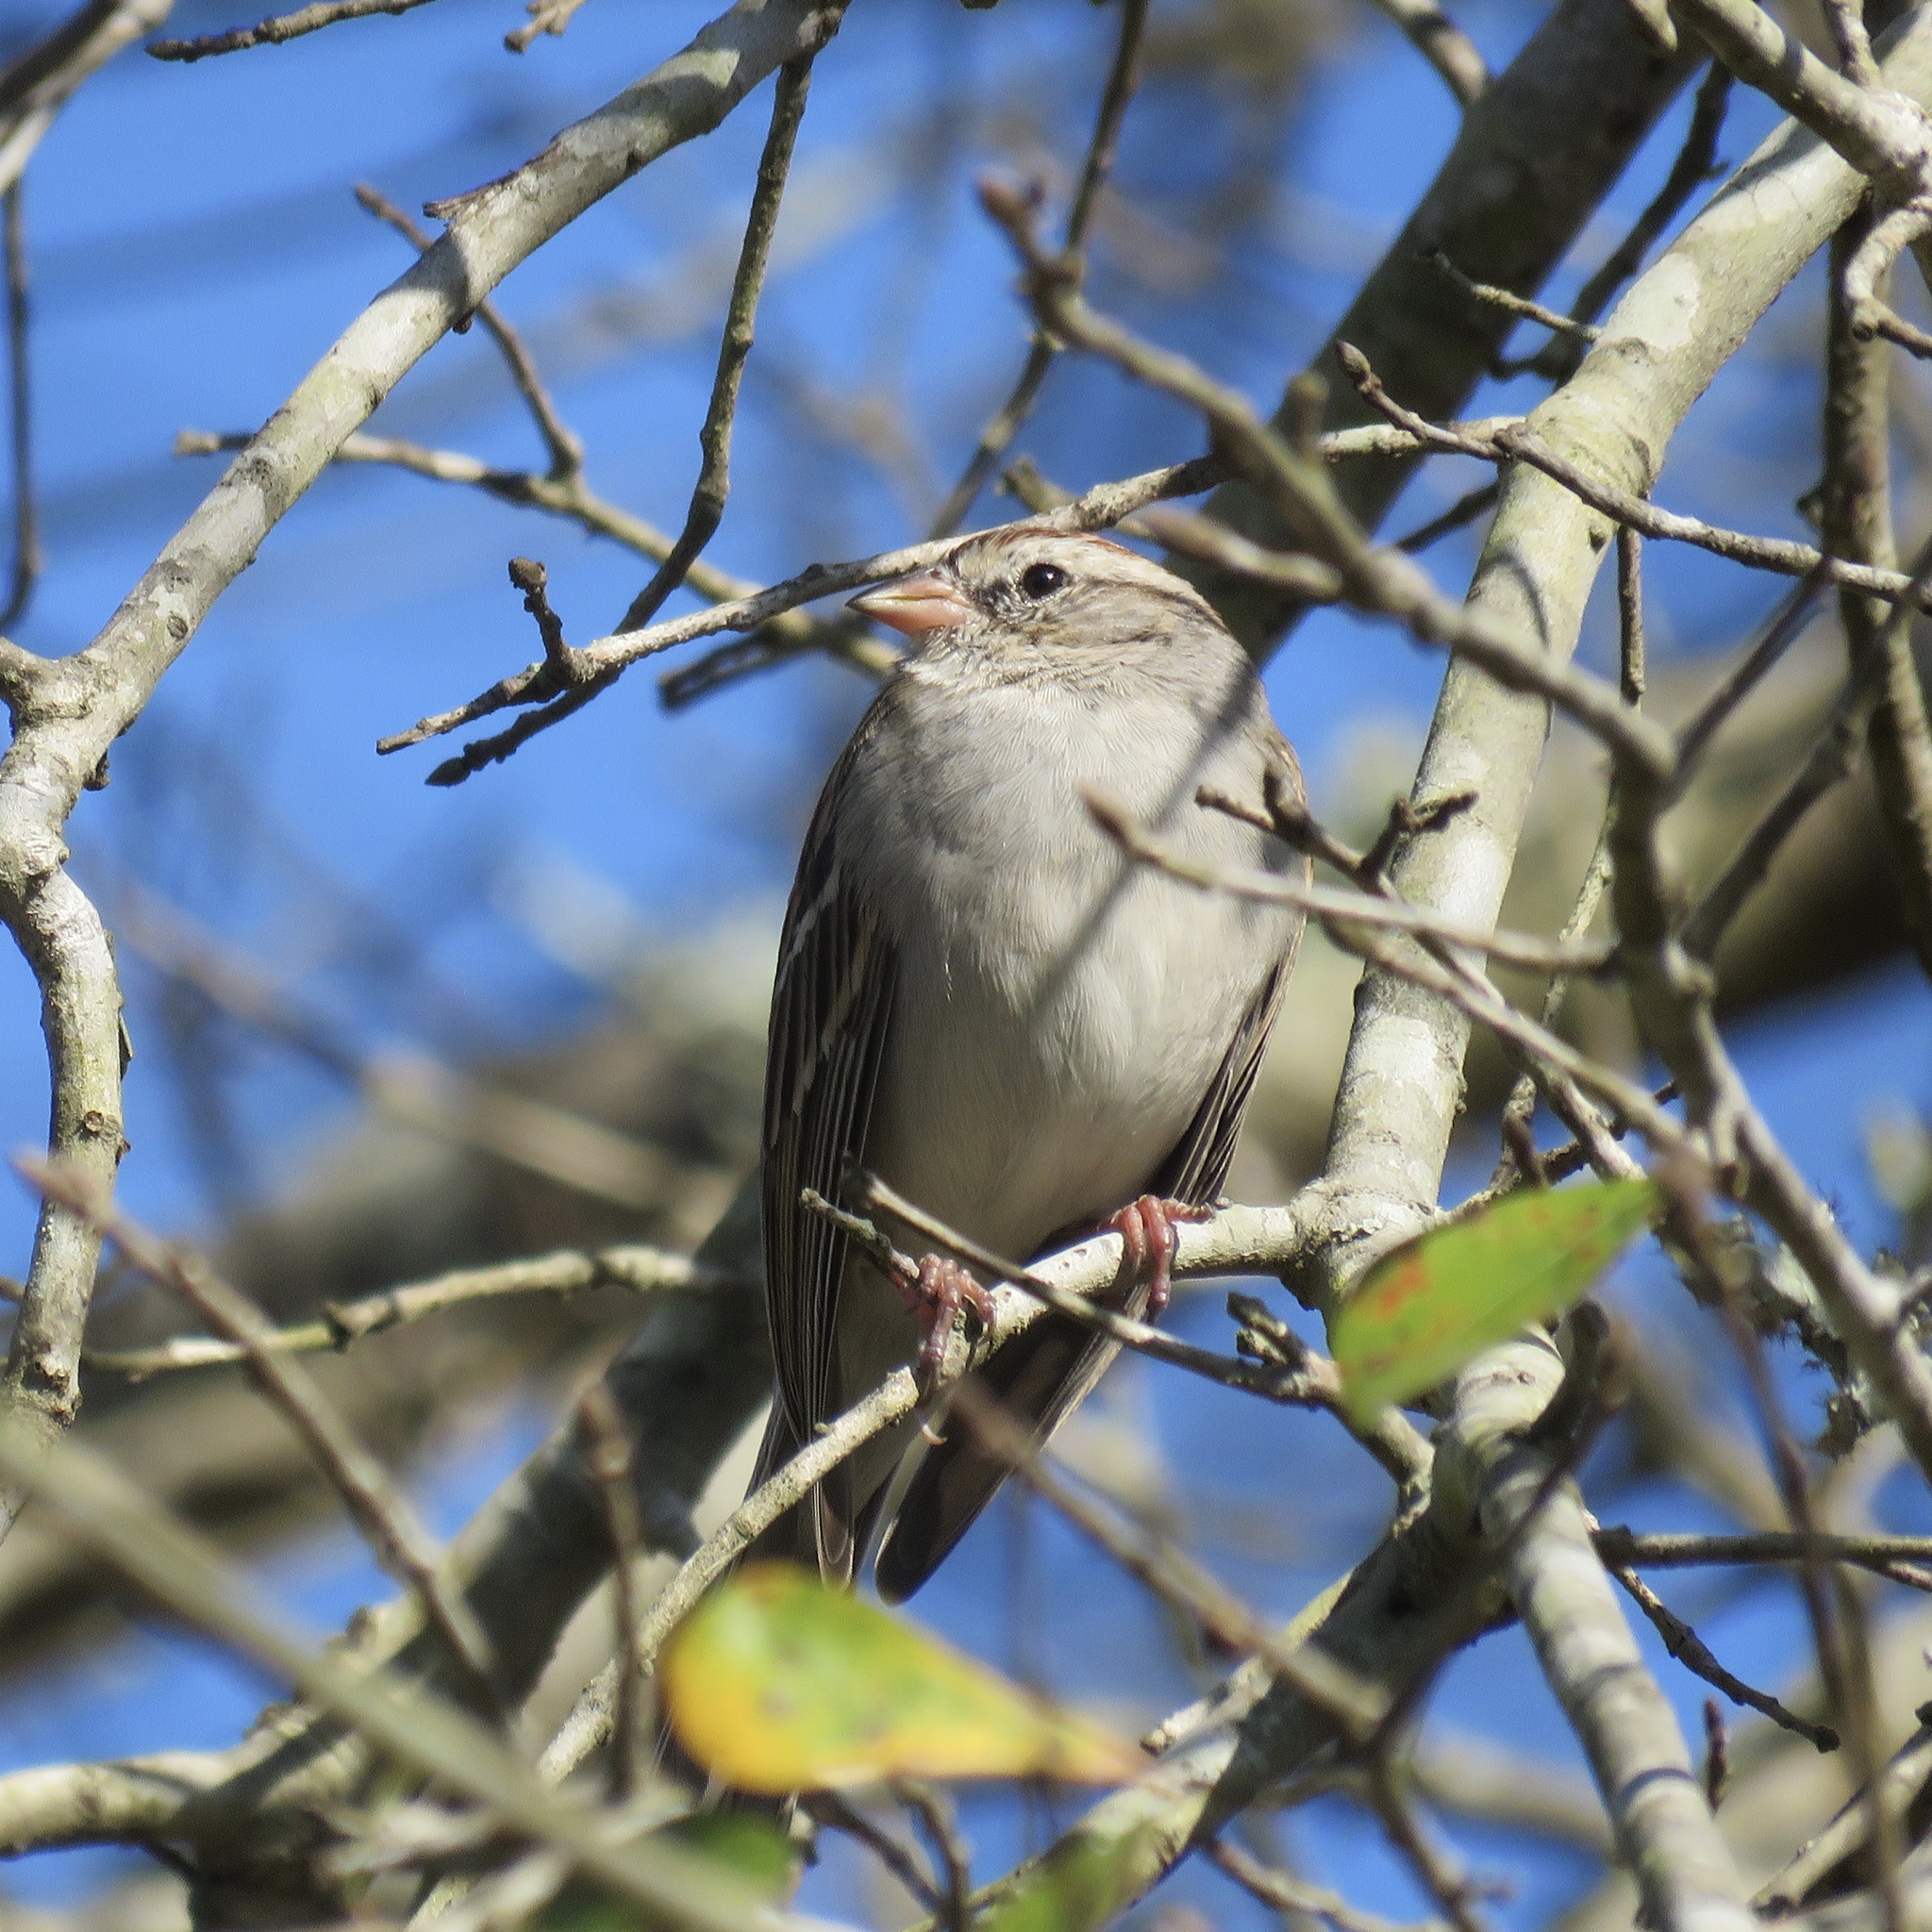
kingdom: Animalia
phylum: Chordata
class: Aves
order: Passeriformes
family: Passerellidae
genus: Spizella
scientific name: Spizella passerina
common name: Chipping sparrow
